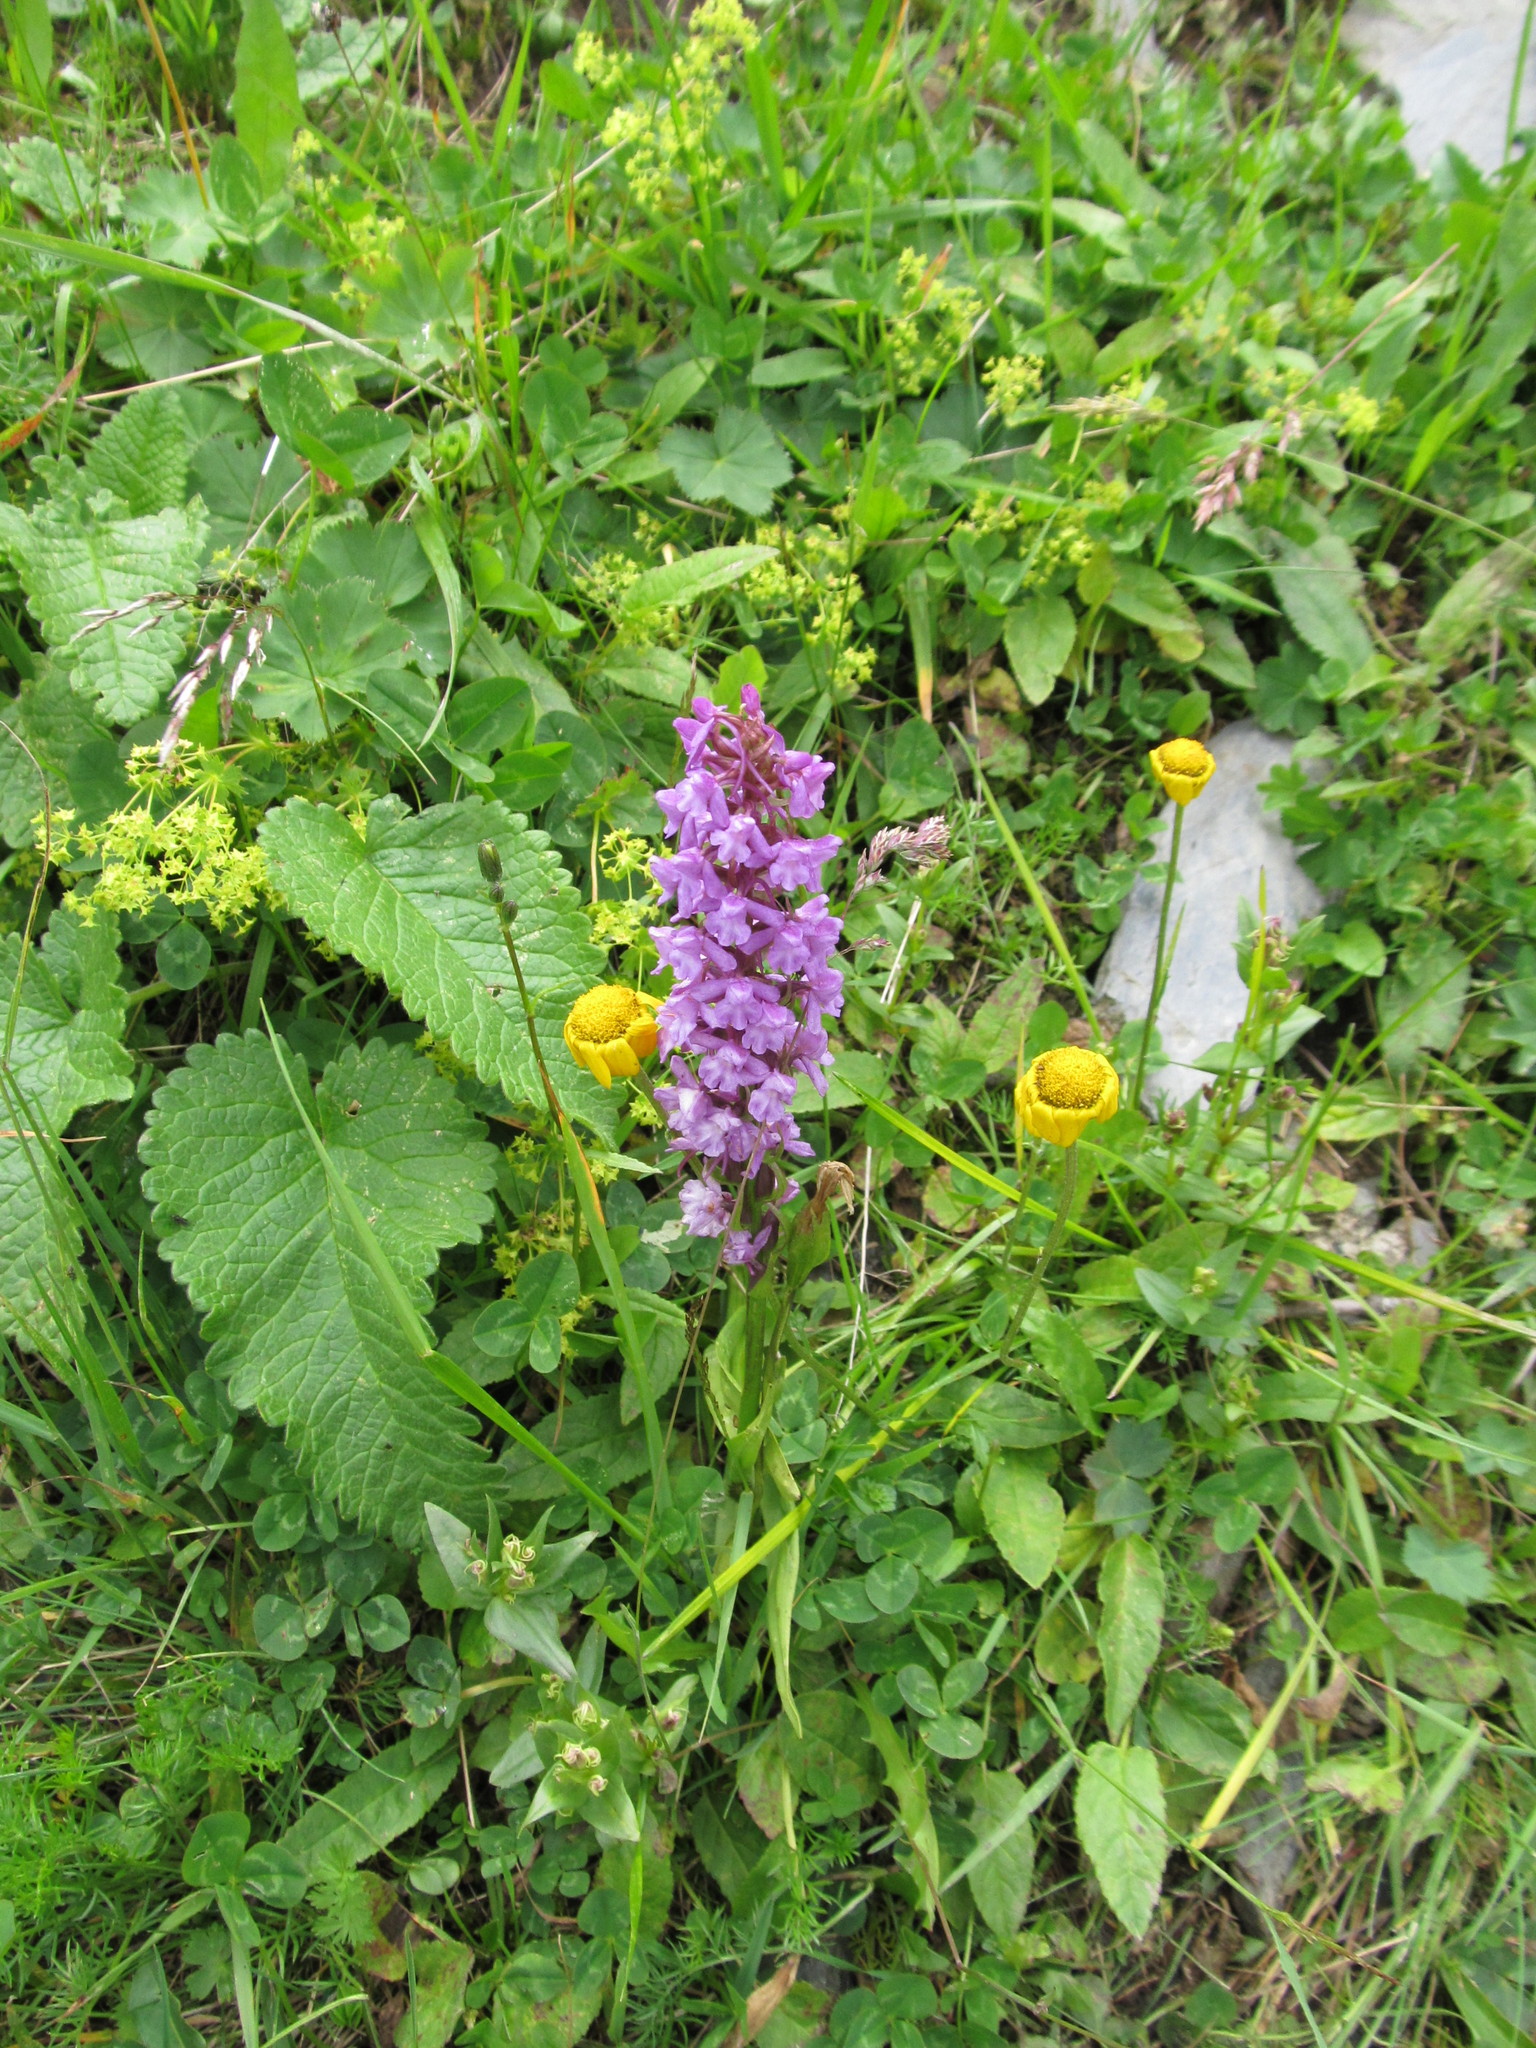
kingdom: Plantae
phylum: Tracheophyta
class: Liliopsida
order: Asparagales
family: Orchidaceae
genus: Gymnadenia
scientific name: Gymnadenia conopsea
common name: Fragrant orchid
